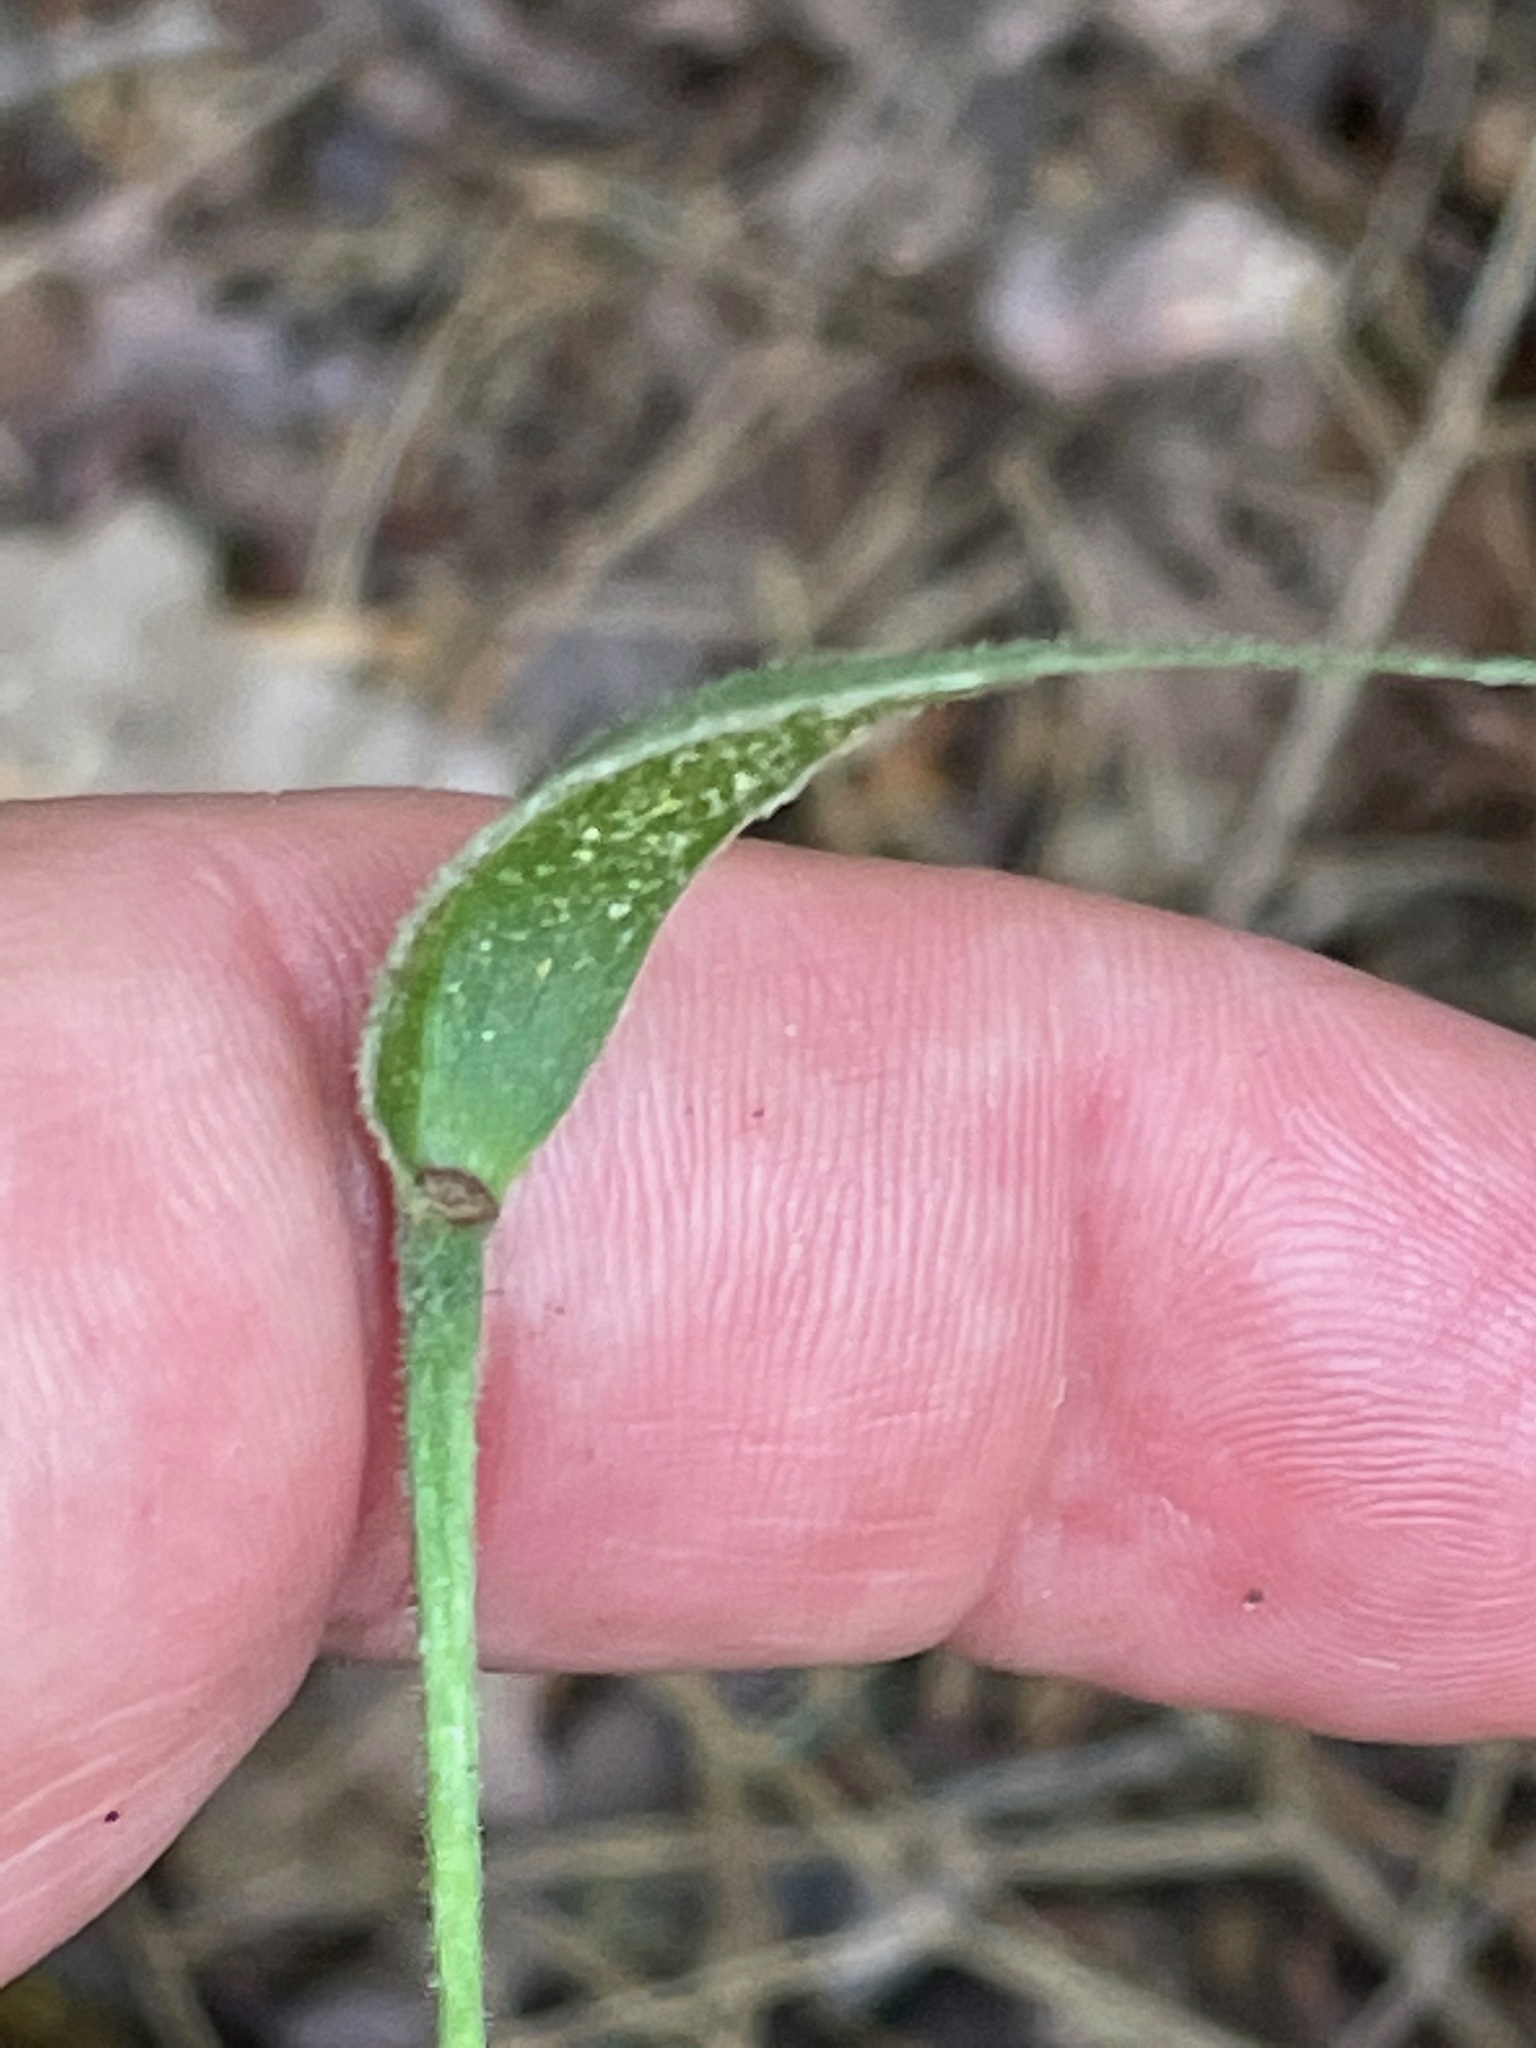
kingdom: Plantae
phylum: Tracheophyta
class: Liliopsida
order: Asparagales
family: Orchidaceae
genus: Cypripedium
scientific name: Cypripedium acaule
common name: Pink lady's-slipper
